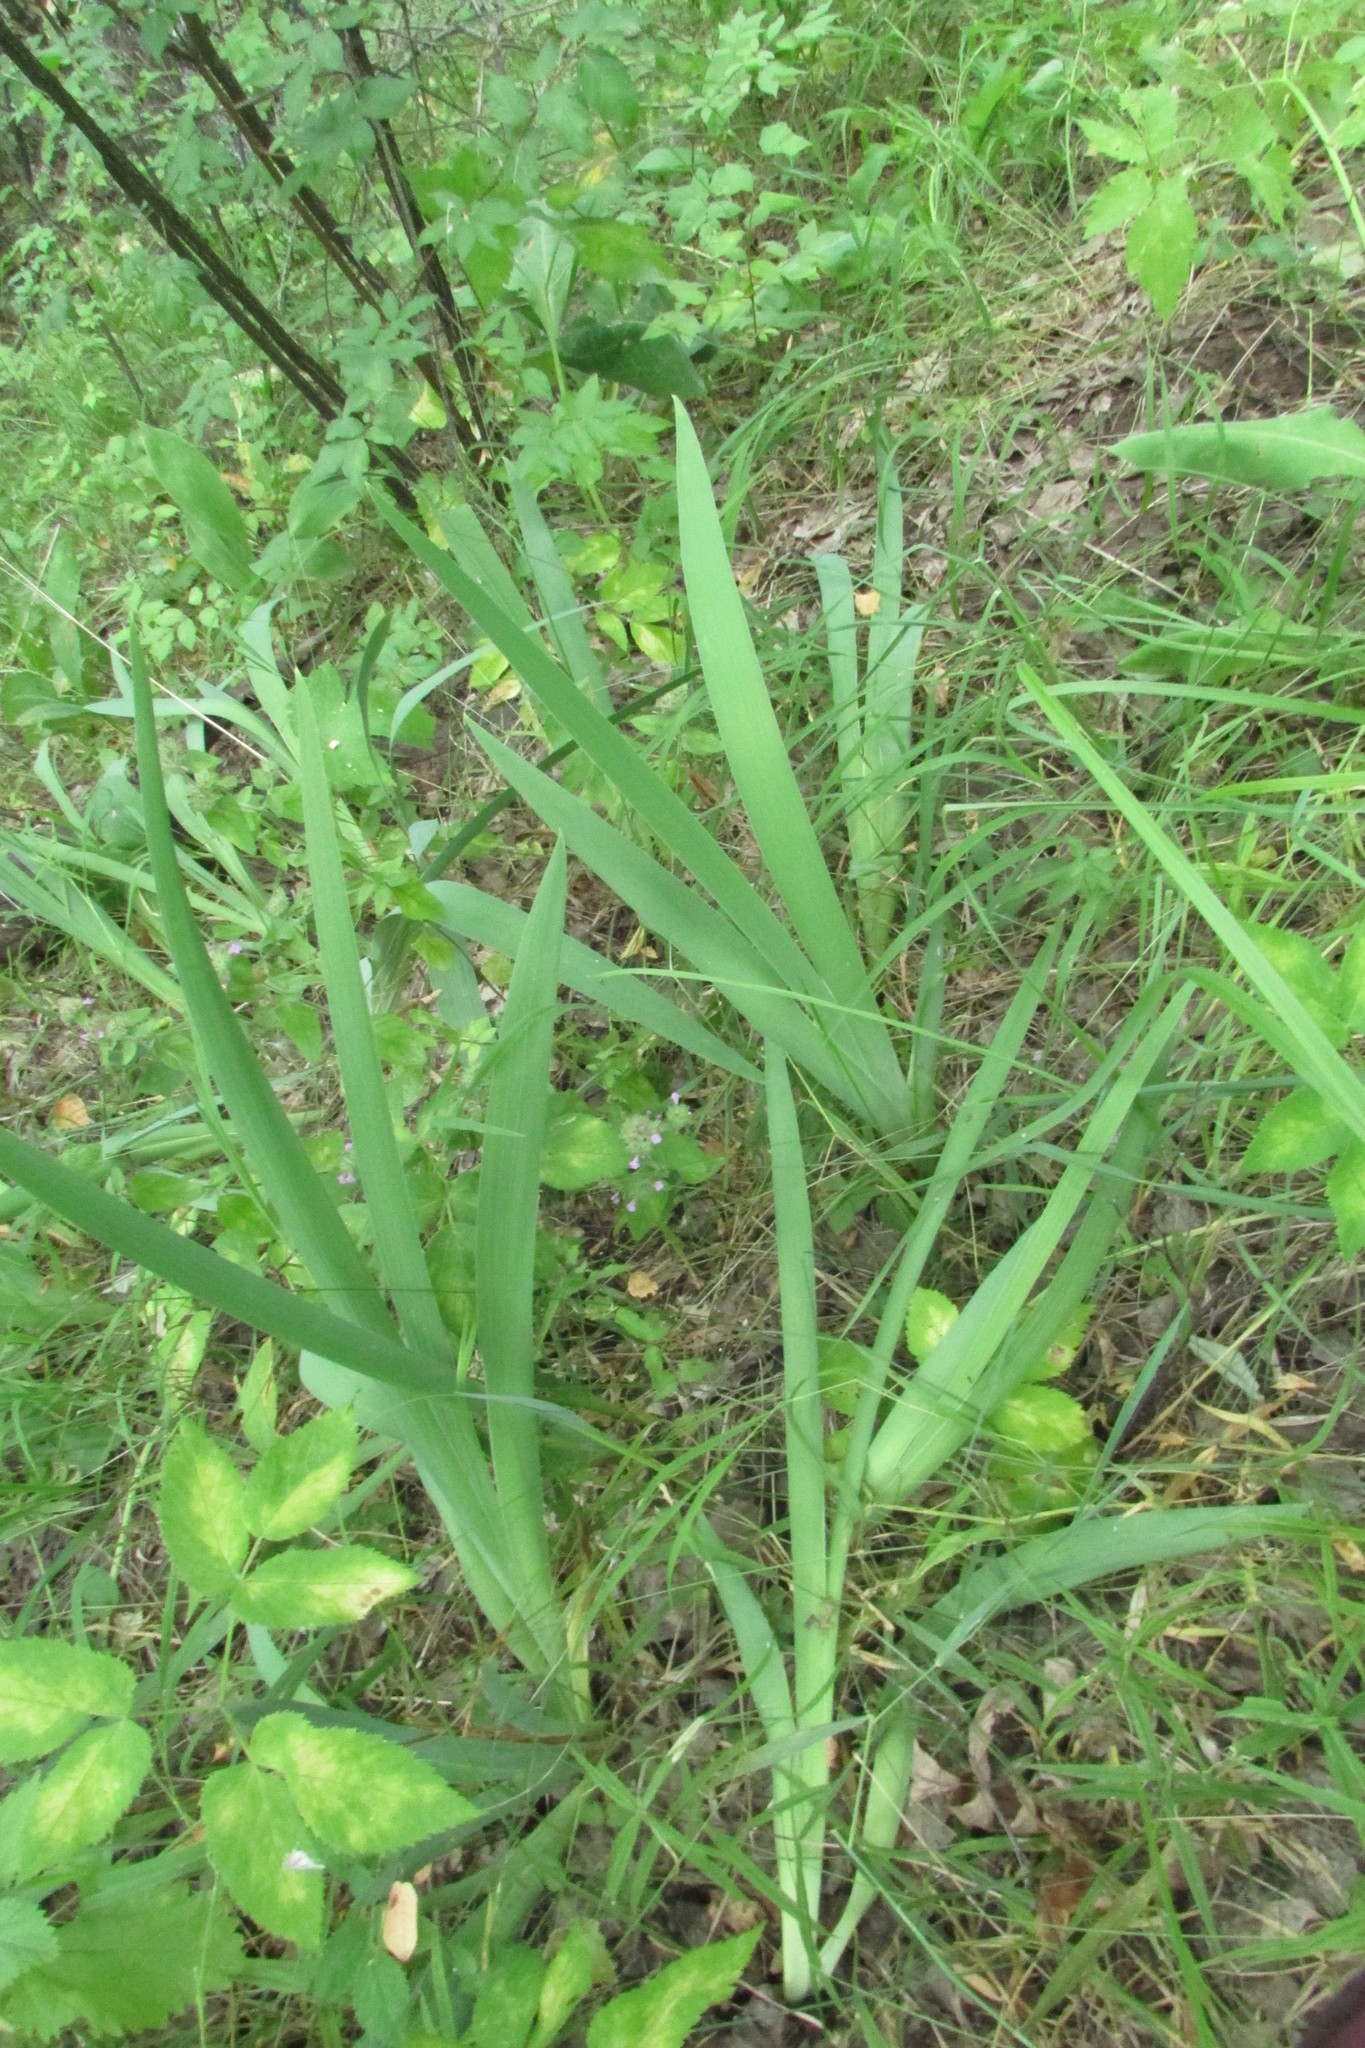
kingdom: Plantae
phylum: Tracheophyta
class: Liliopsida
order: Asparagales
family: Iridaceae
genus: Iris
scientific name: Iris aphylla
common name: Stool iris
